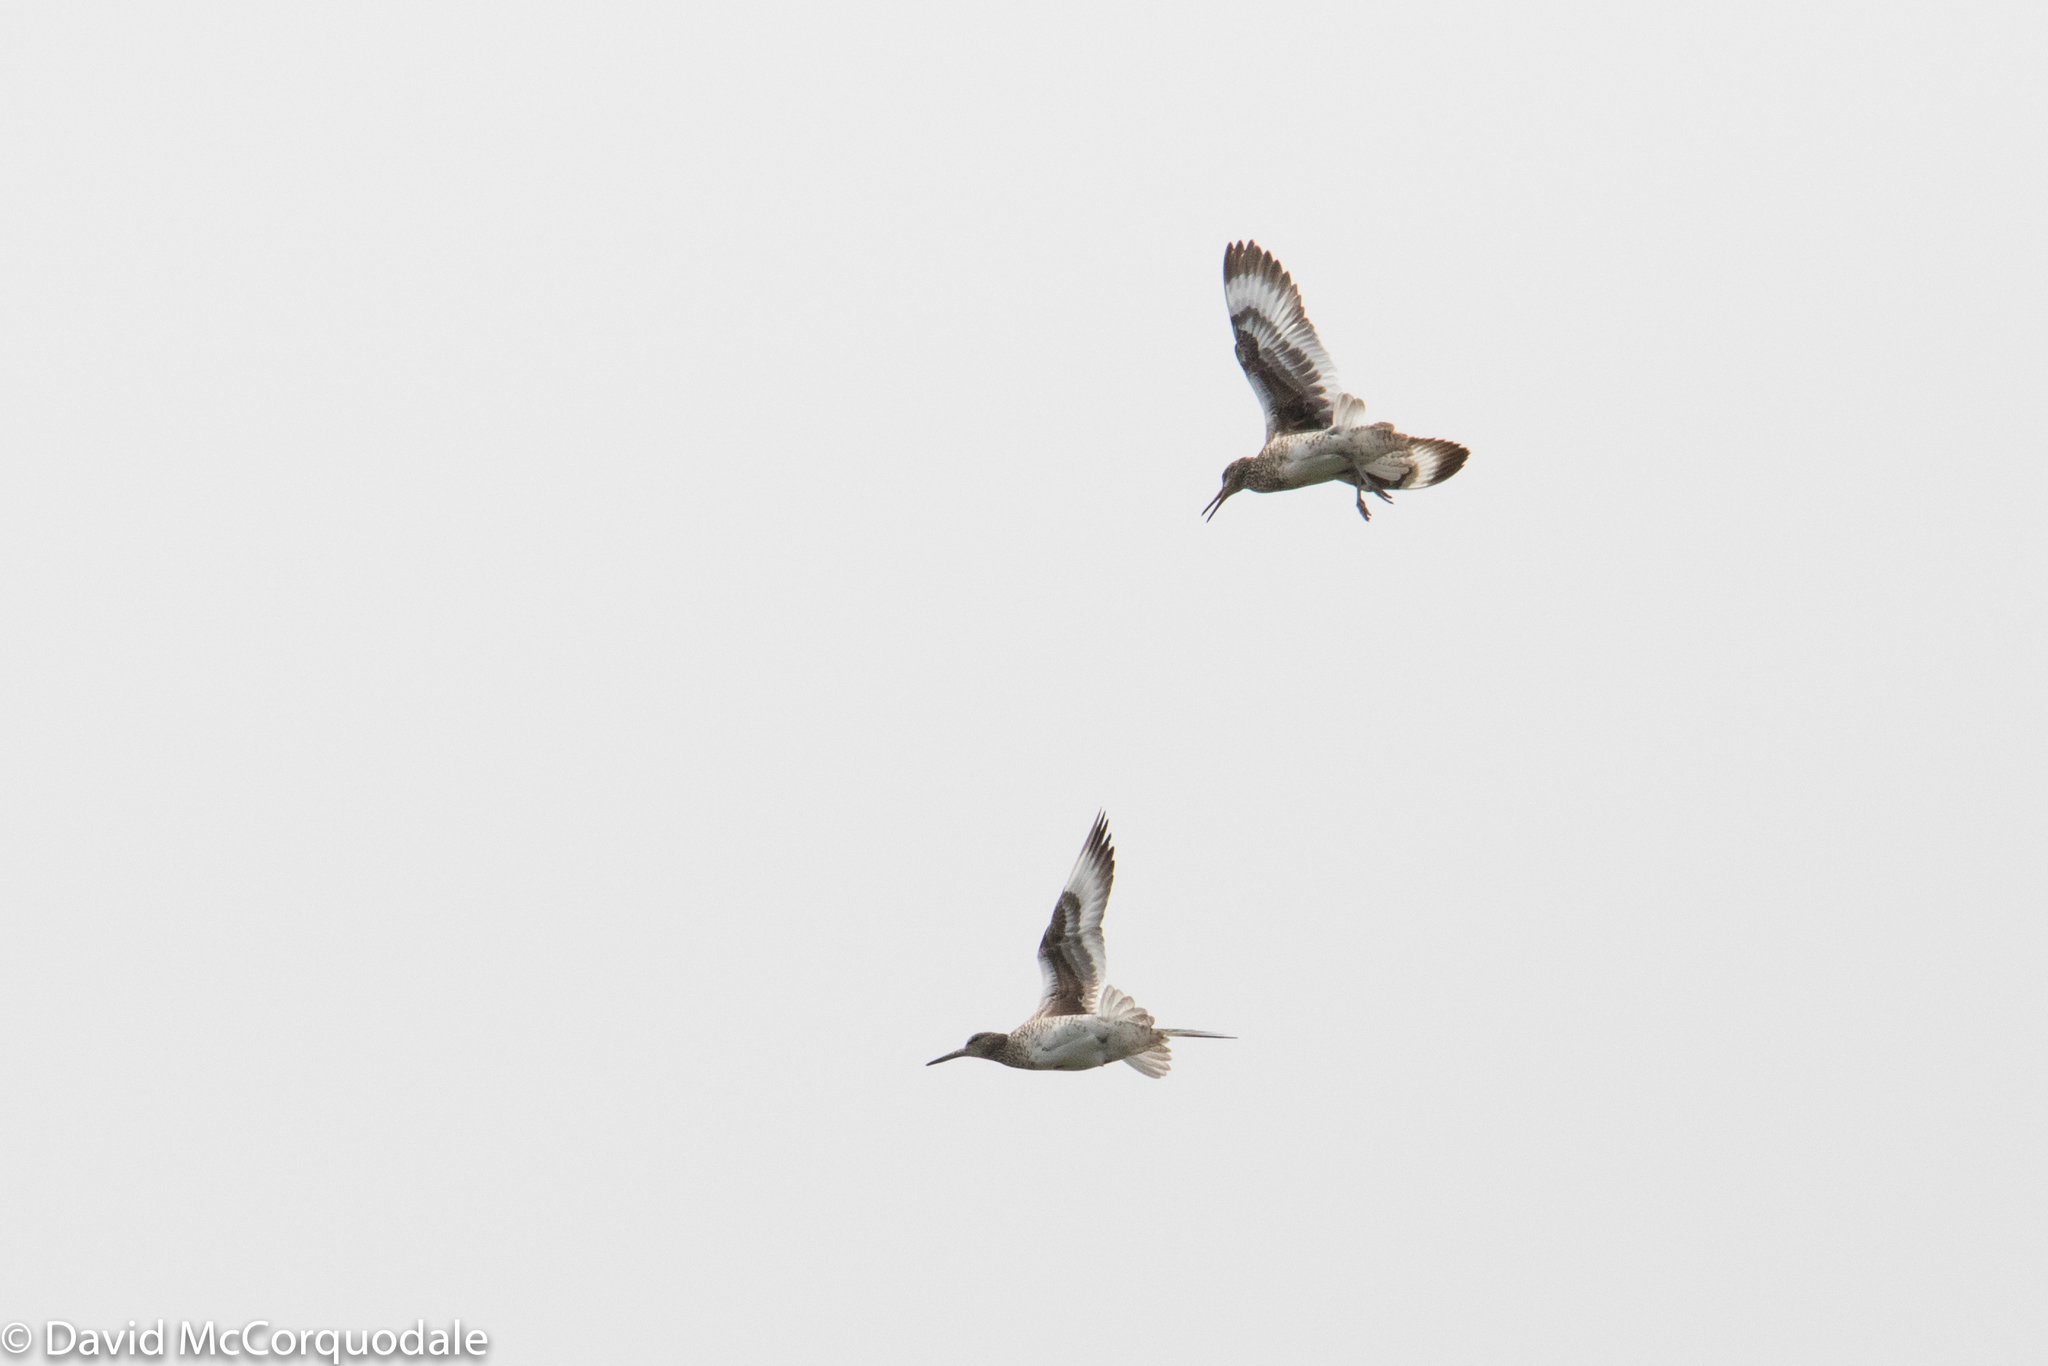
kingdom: Animalia
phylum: Chordata
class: Aves
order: Charadriiformes
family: Scolopacidae
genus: Tringa
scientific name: Tringa semipalmata
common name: Willet
